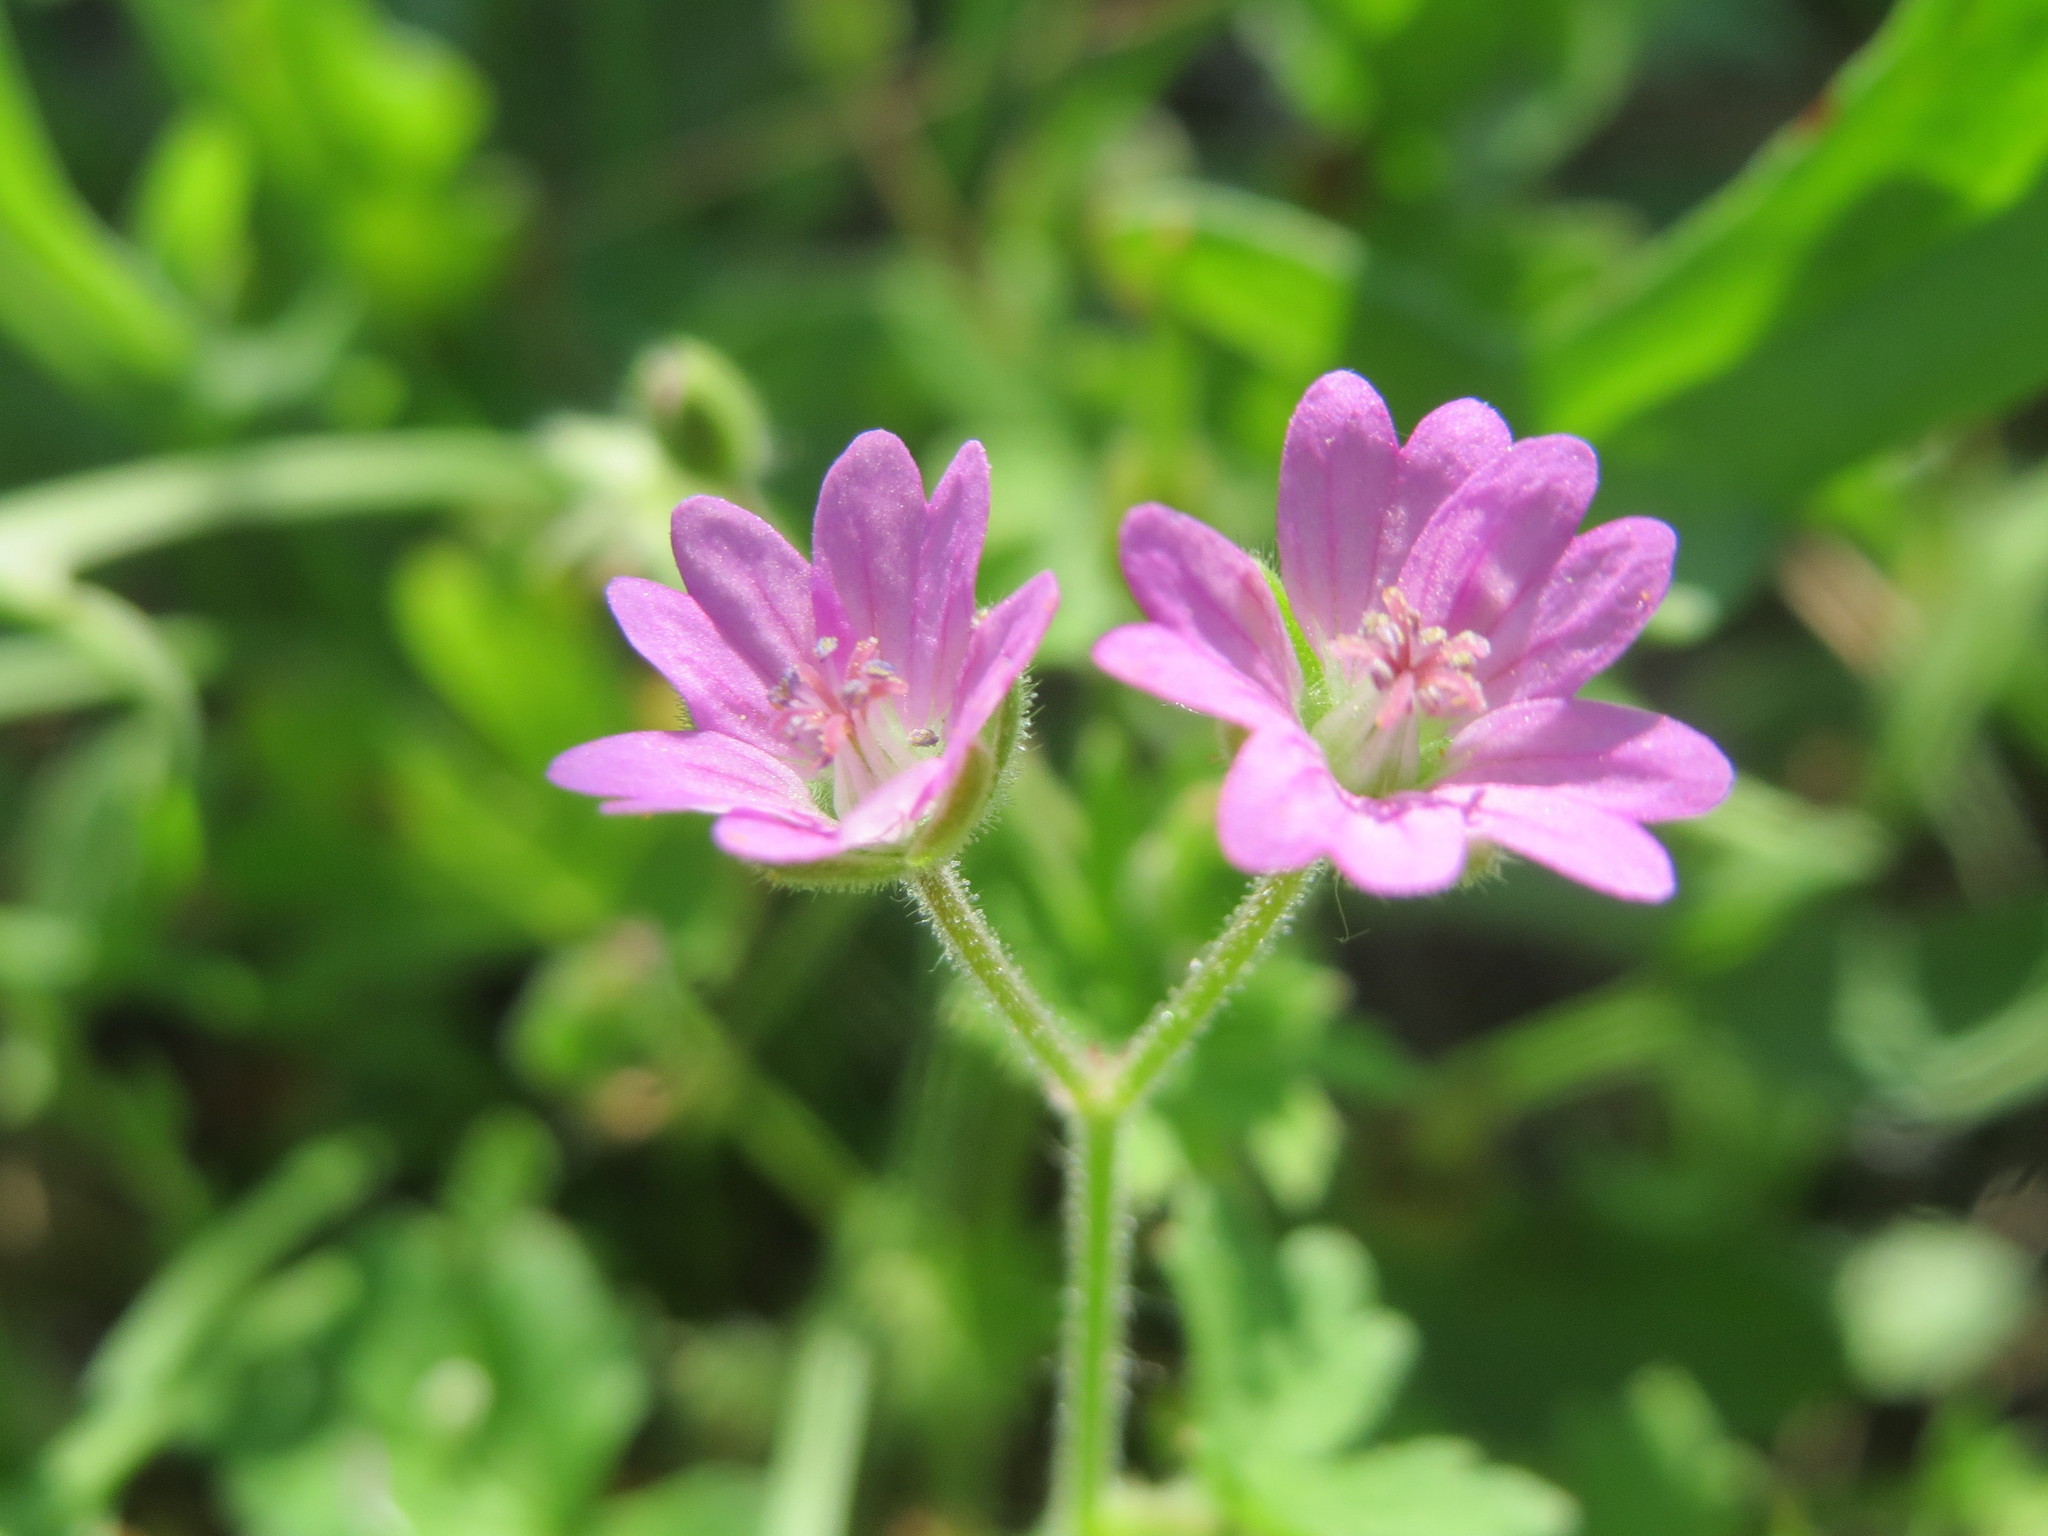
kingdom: Plantae
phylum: Tracheophyta
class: Magnoliopsida
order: Geraniales
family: Geraniaceae
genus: Geranium
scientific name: Geranium molle
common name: Dove's-foot crane's-bill
